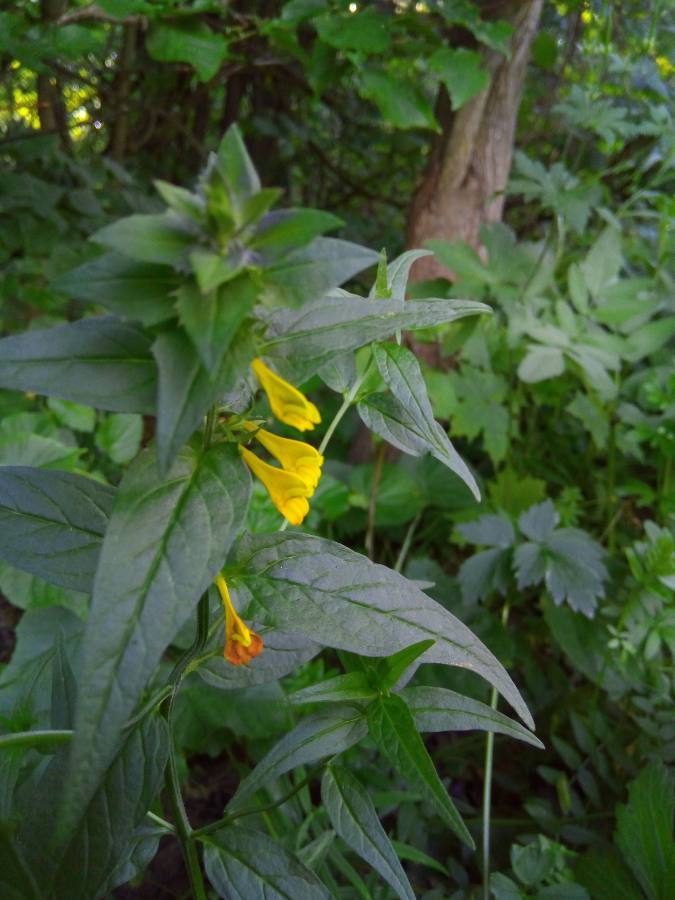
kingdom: Plantae
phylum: Tracheophyta
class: Magnoliopsida
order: Lamiales
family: Orobanchaceae
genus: Melampyrum
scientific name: Melampyrum nemorosum
